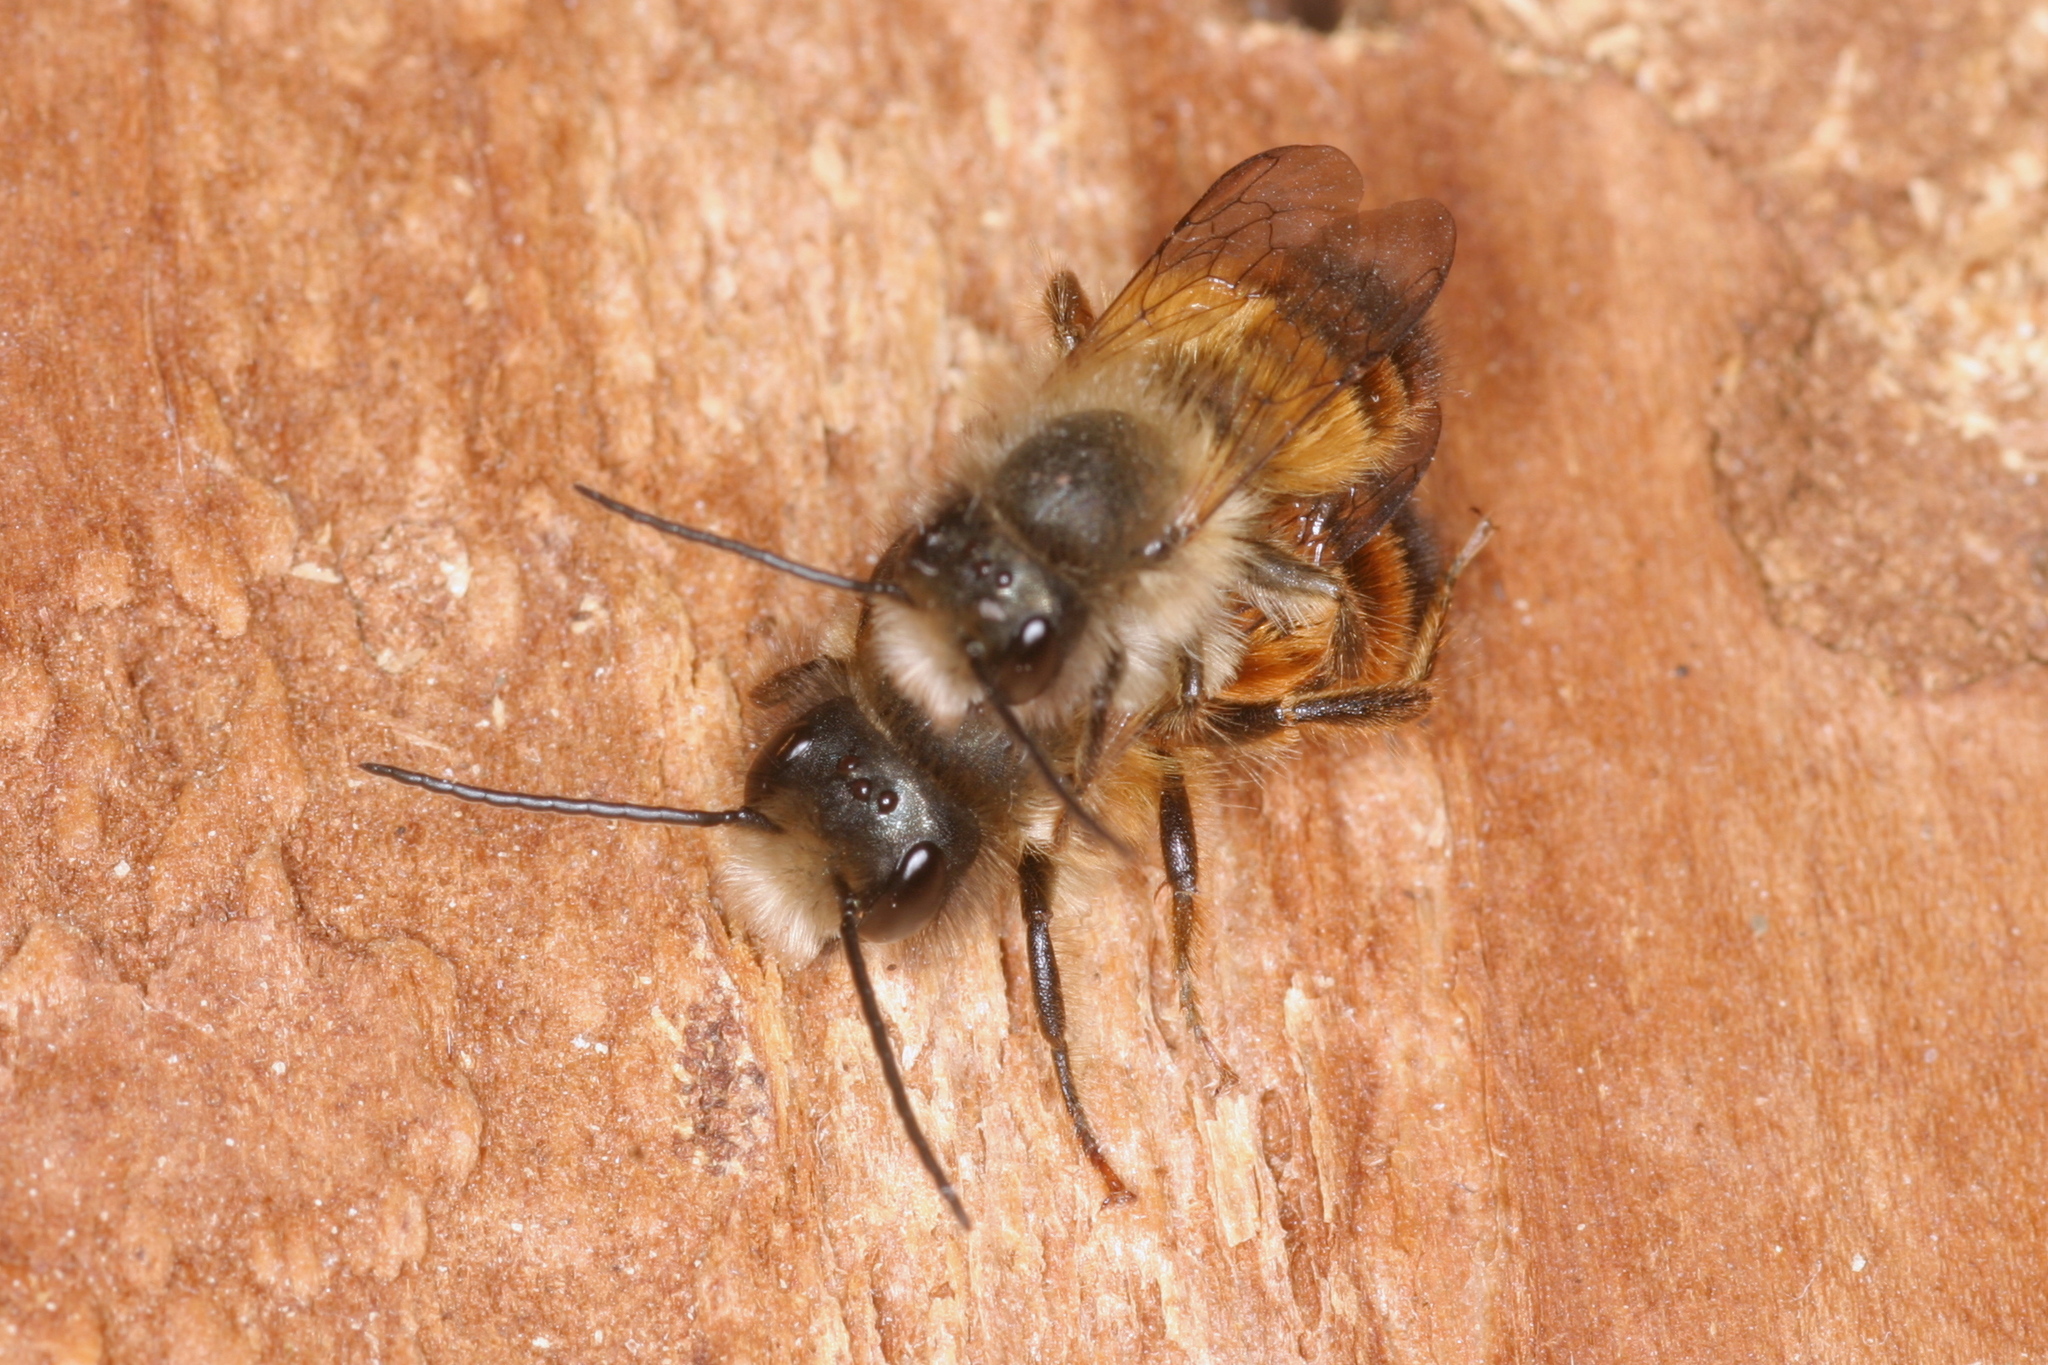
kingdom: Animalia
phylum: Arthropoda
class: Insecta
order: Hymenoptera
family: Megachilidae
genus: Osmia
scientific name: Osmia bicornis
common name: Red mason bee
